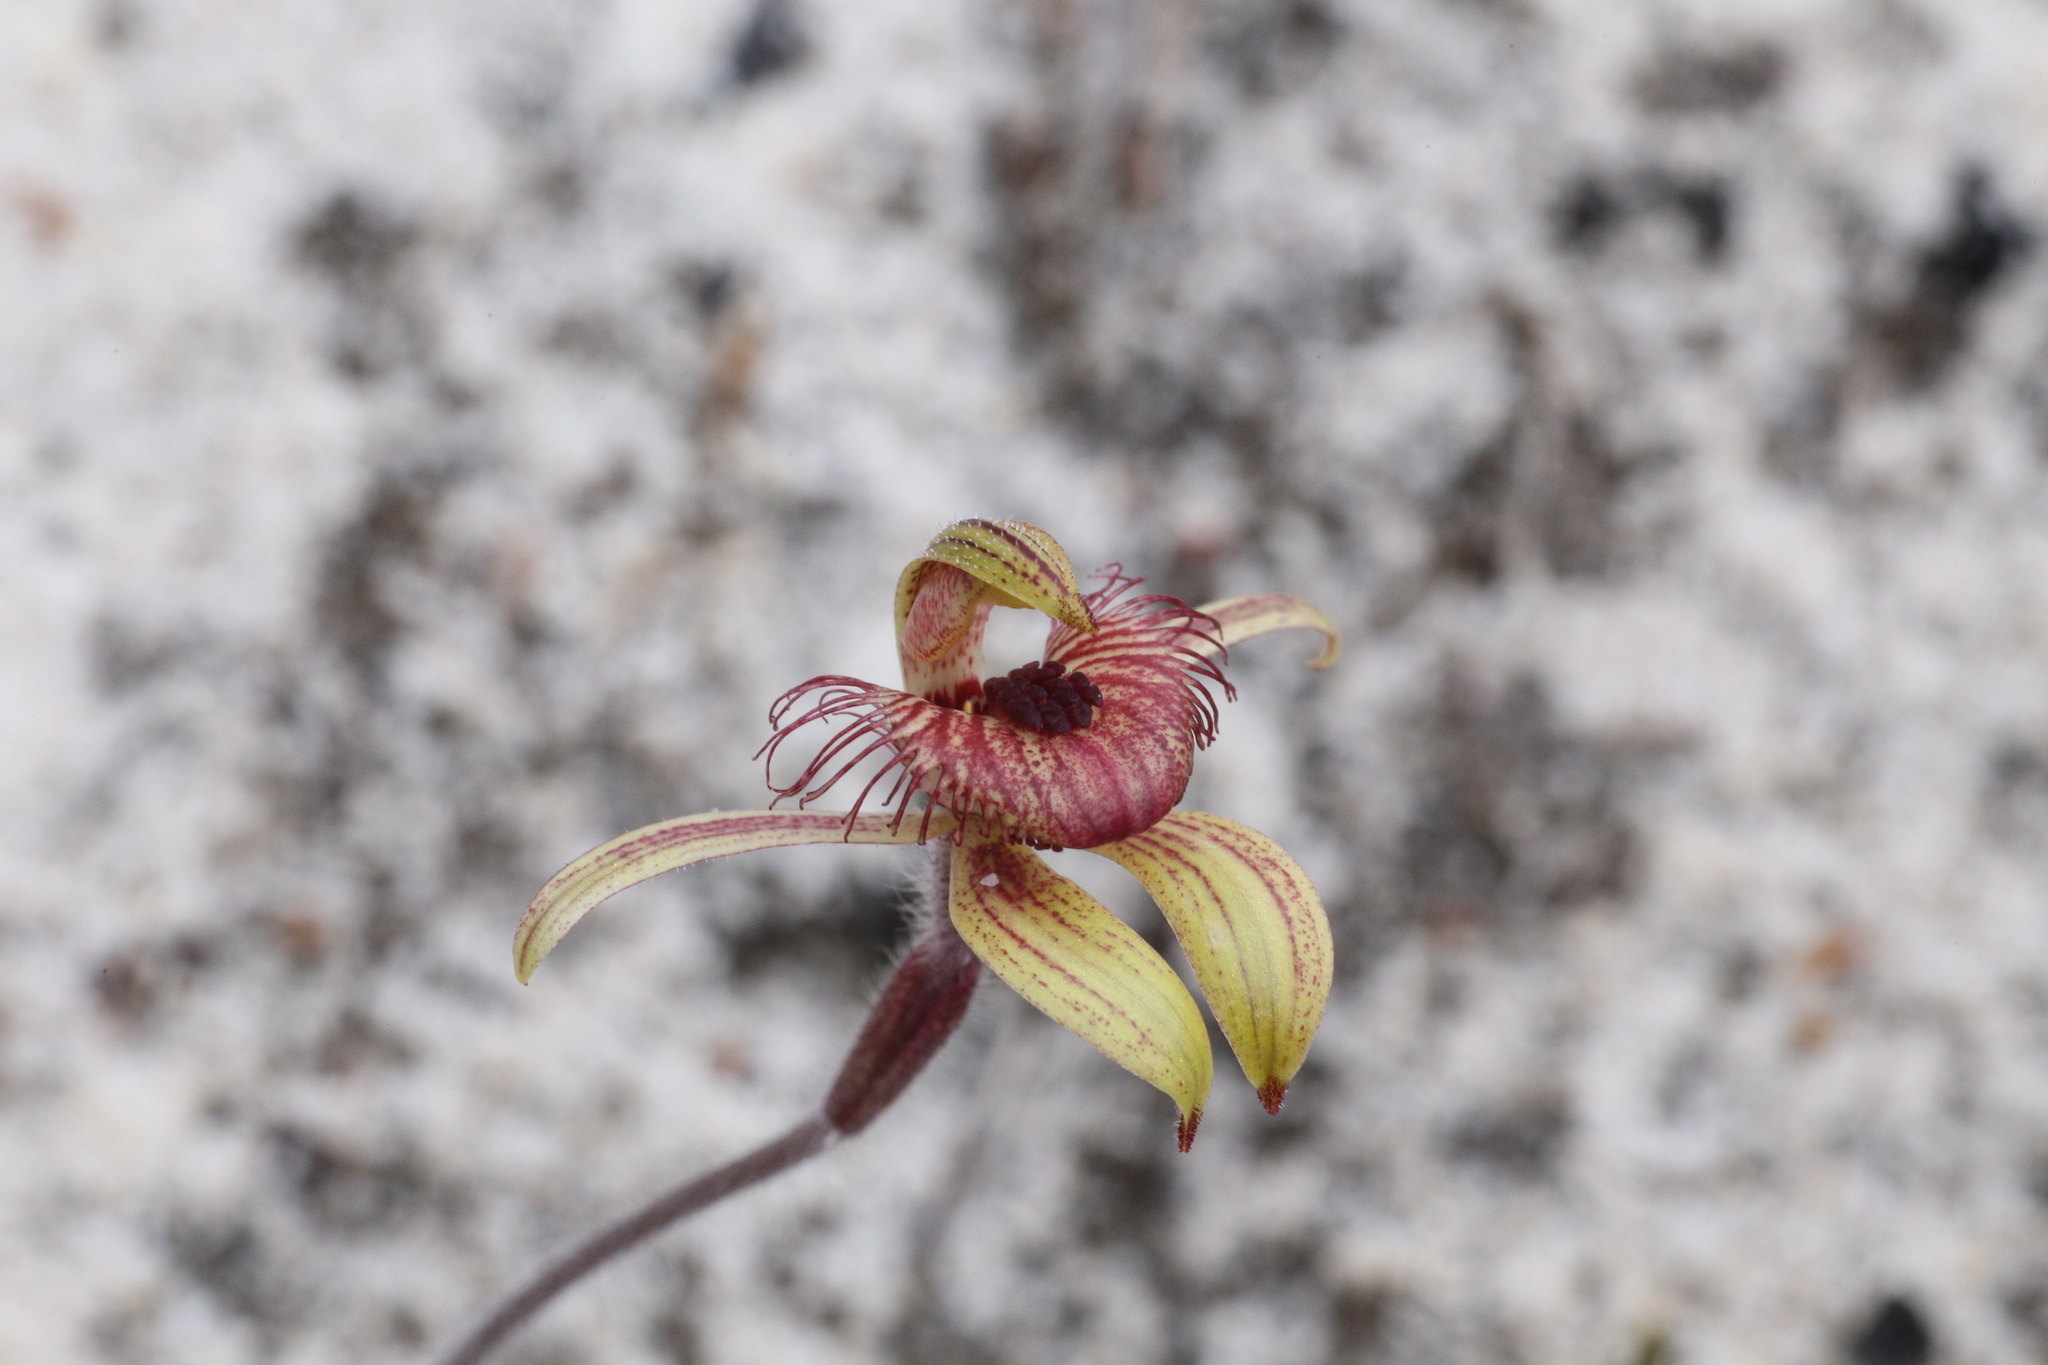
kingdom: Plantae
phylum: Tracheophyta
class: Liliopsida
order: Asparagales
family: Orchidaceae
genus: Caladenia
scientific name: Caladenia discoidea
